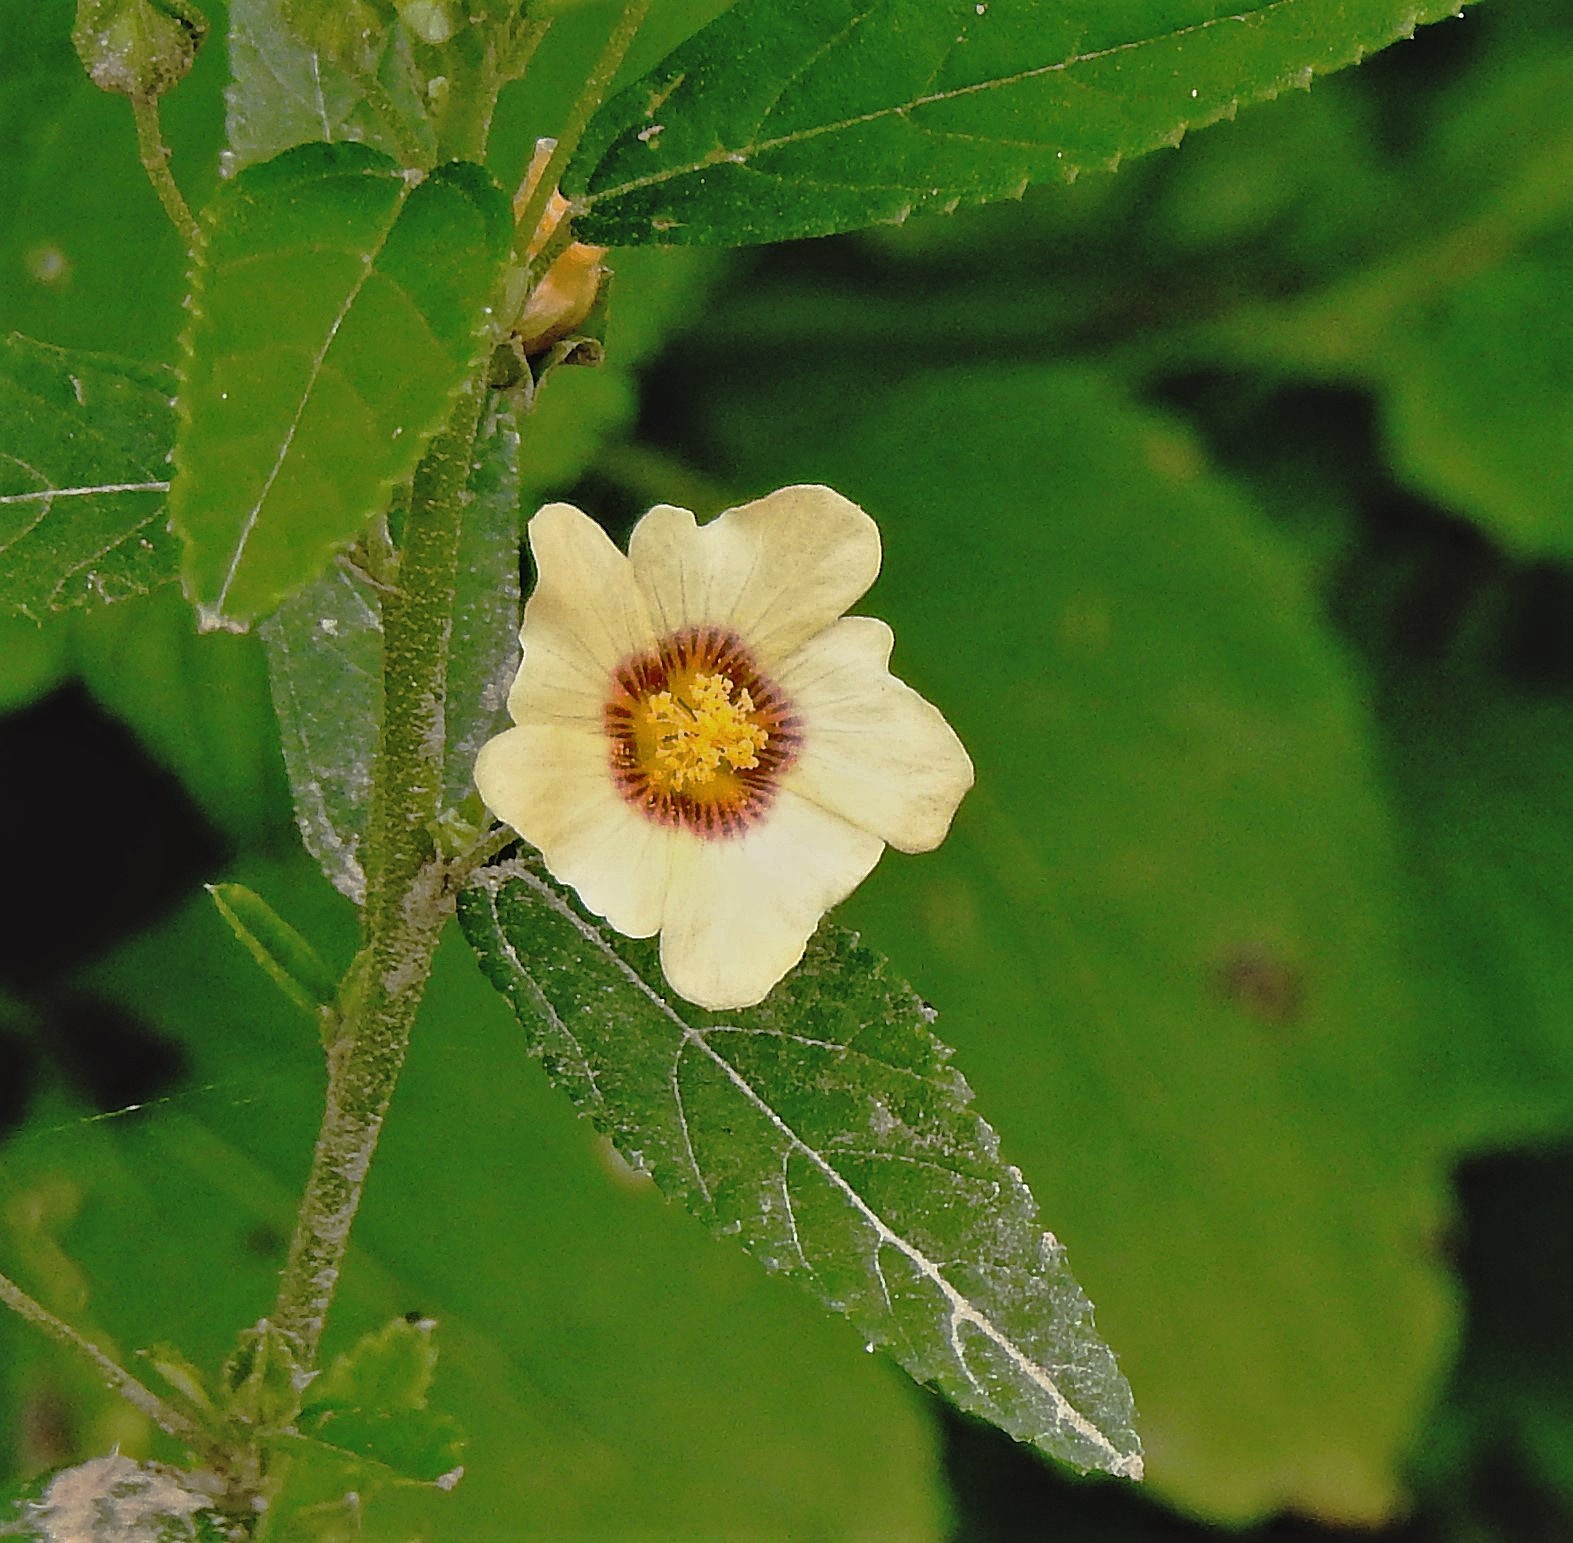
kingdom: Plantae
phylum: Tracheophyta
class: Magnoliopsida
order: Malvales
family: Malvaceae
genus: Sida
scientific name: Sida rhombifolia
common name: Queensland-hemp
